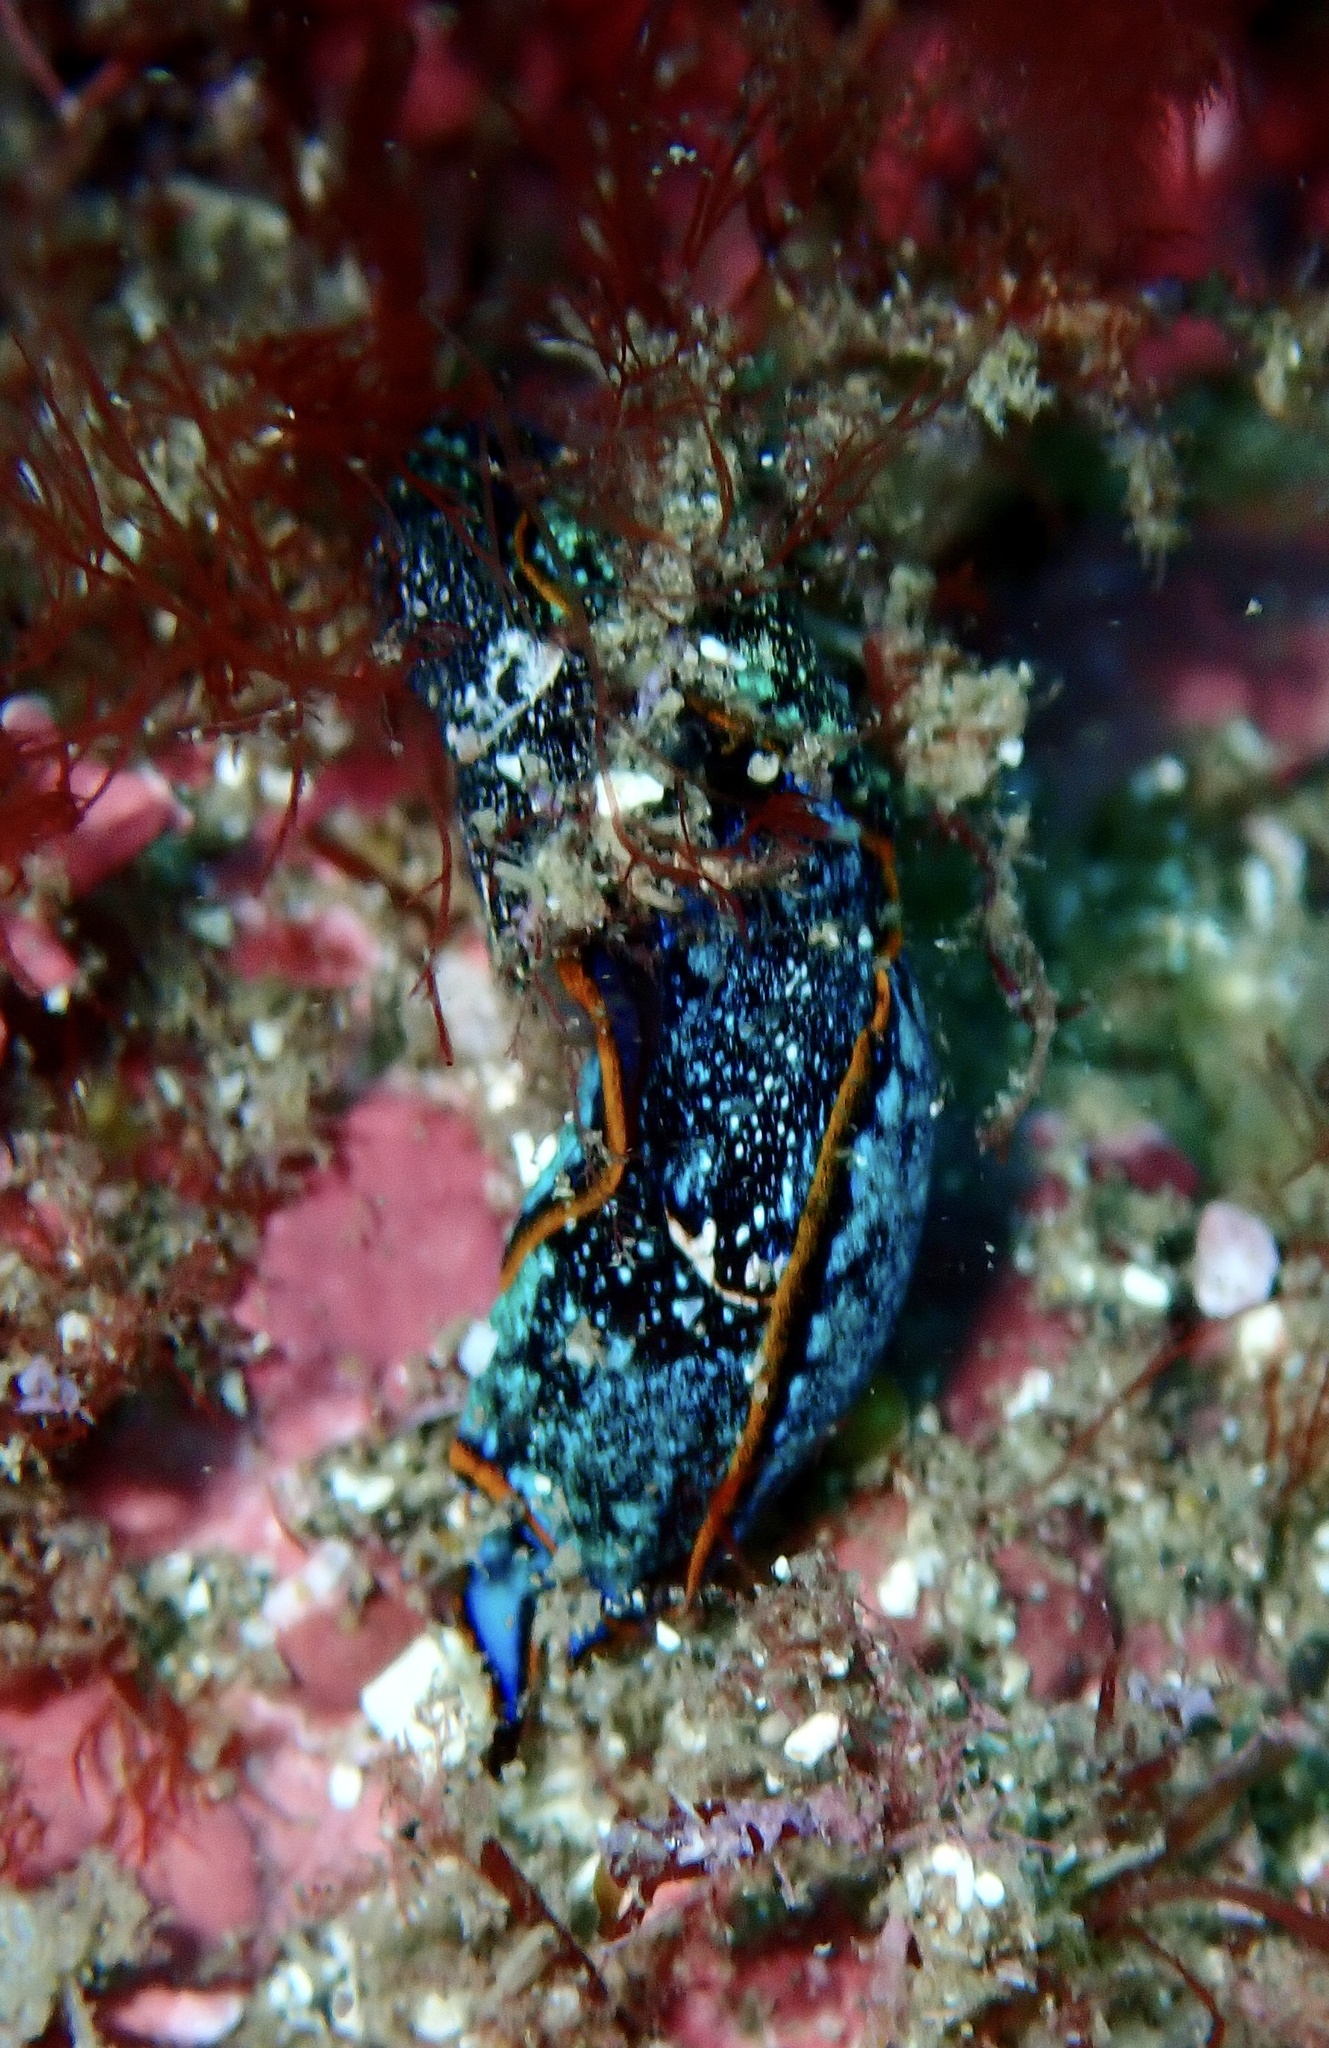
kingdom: Animalia
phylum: Mollusca
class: Gastropoda
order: Cephalaspidea
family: Aglajidae
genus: Camachoaglaja
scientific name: Camachoaglaja binter
